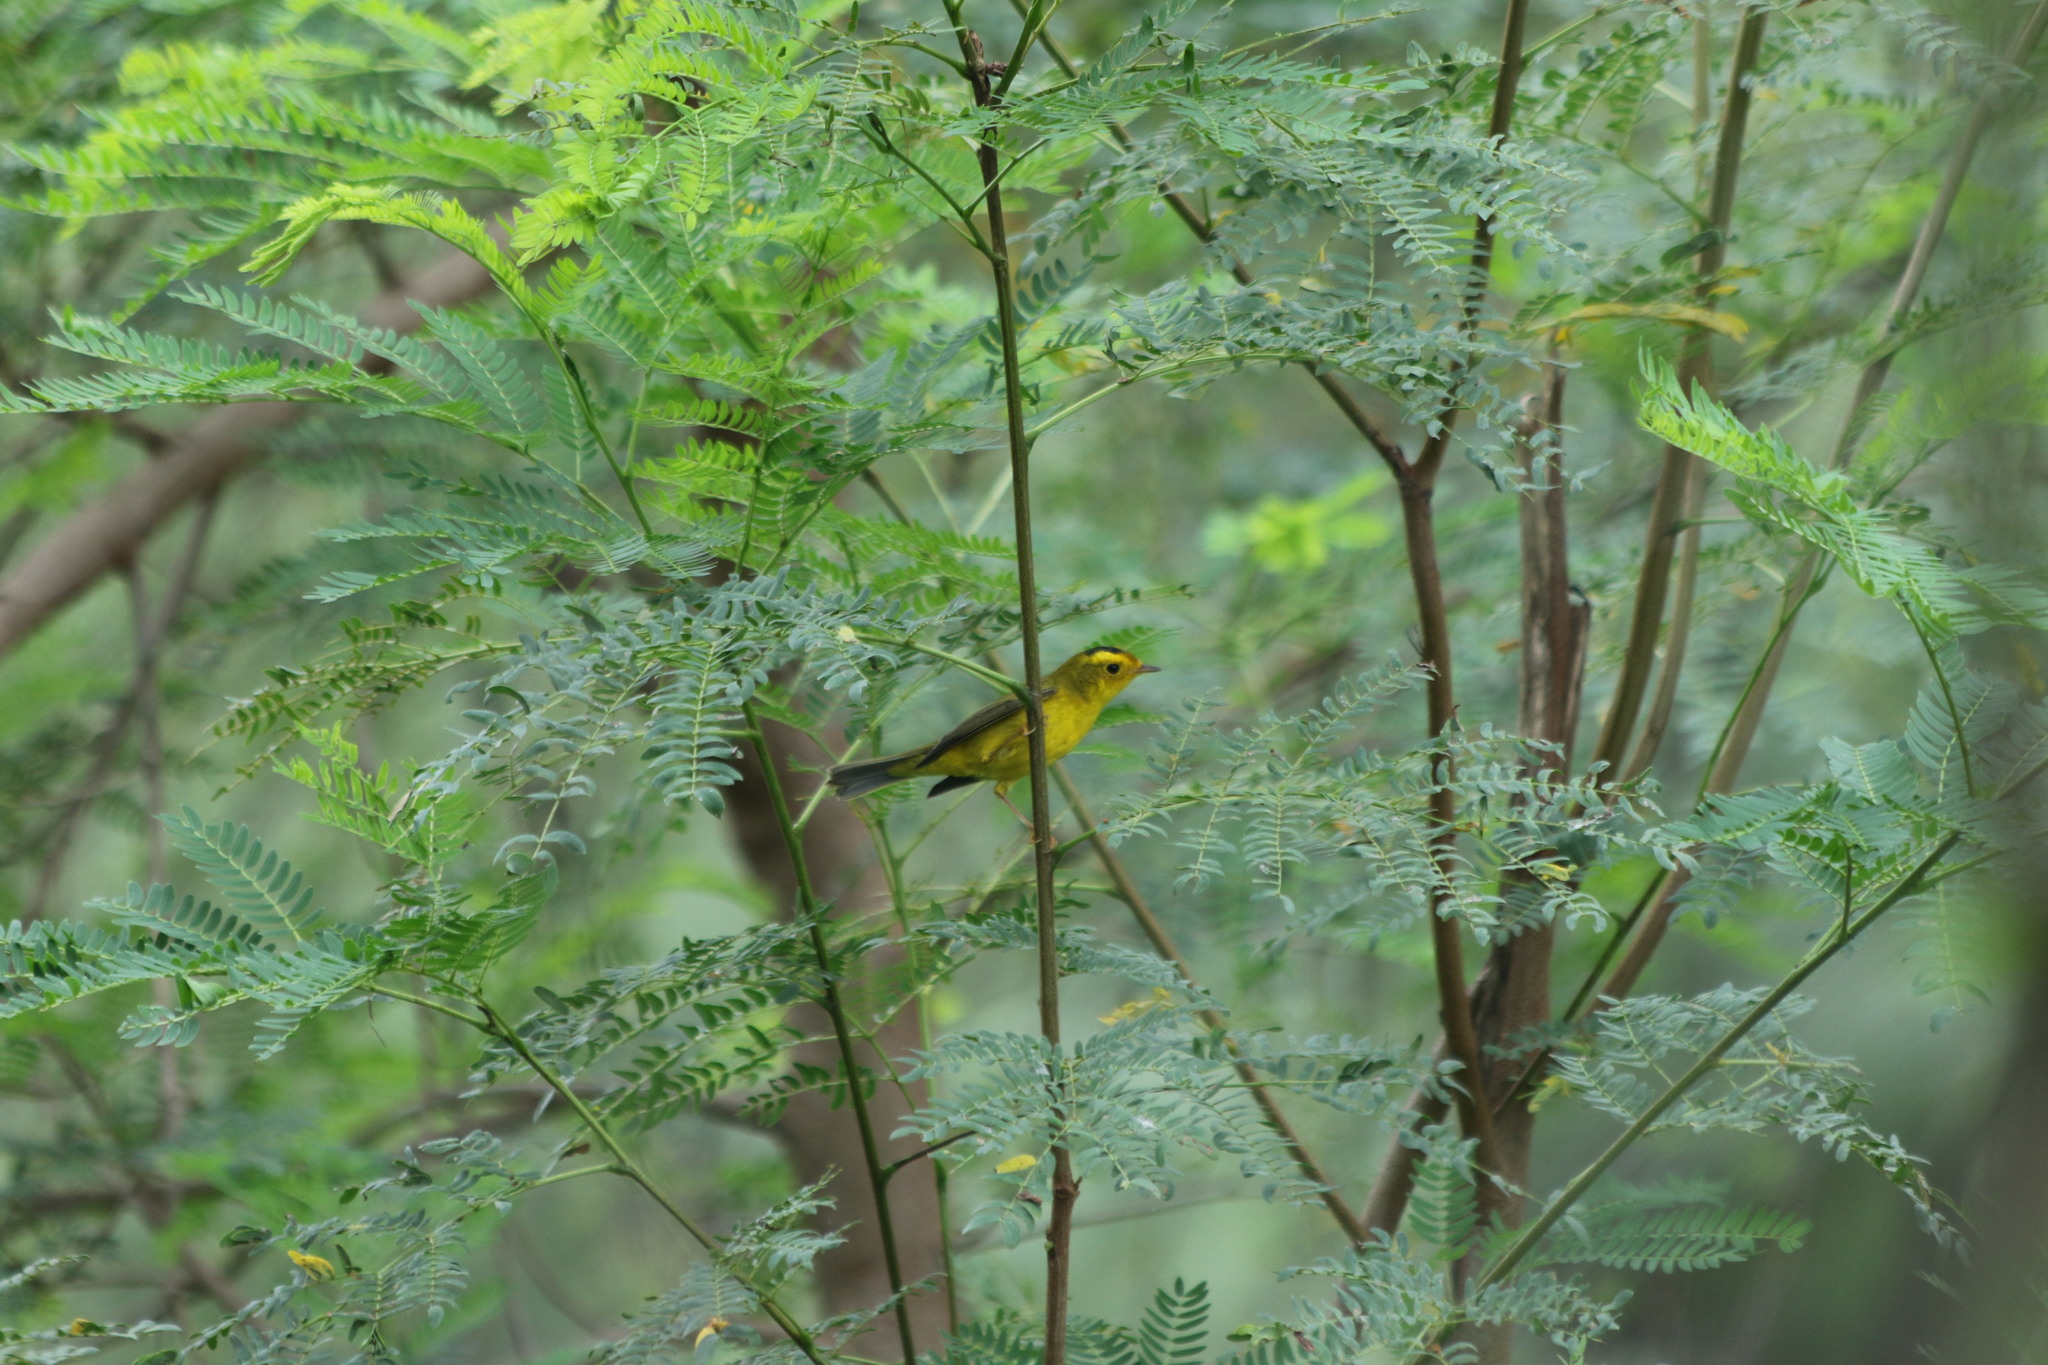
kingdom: Animalia
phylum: Chordata
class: Aves
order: Passeriformes
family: Parulidae
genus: Cardellina
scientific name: Cardellina pusilla
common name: Wilson's warbler
